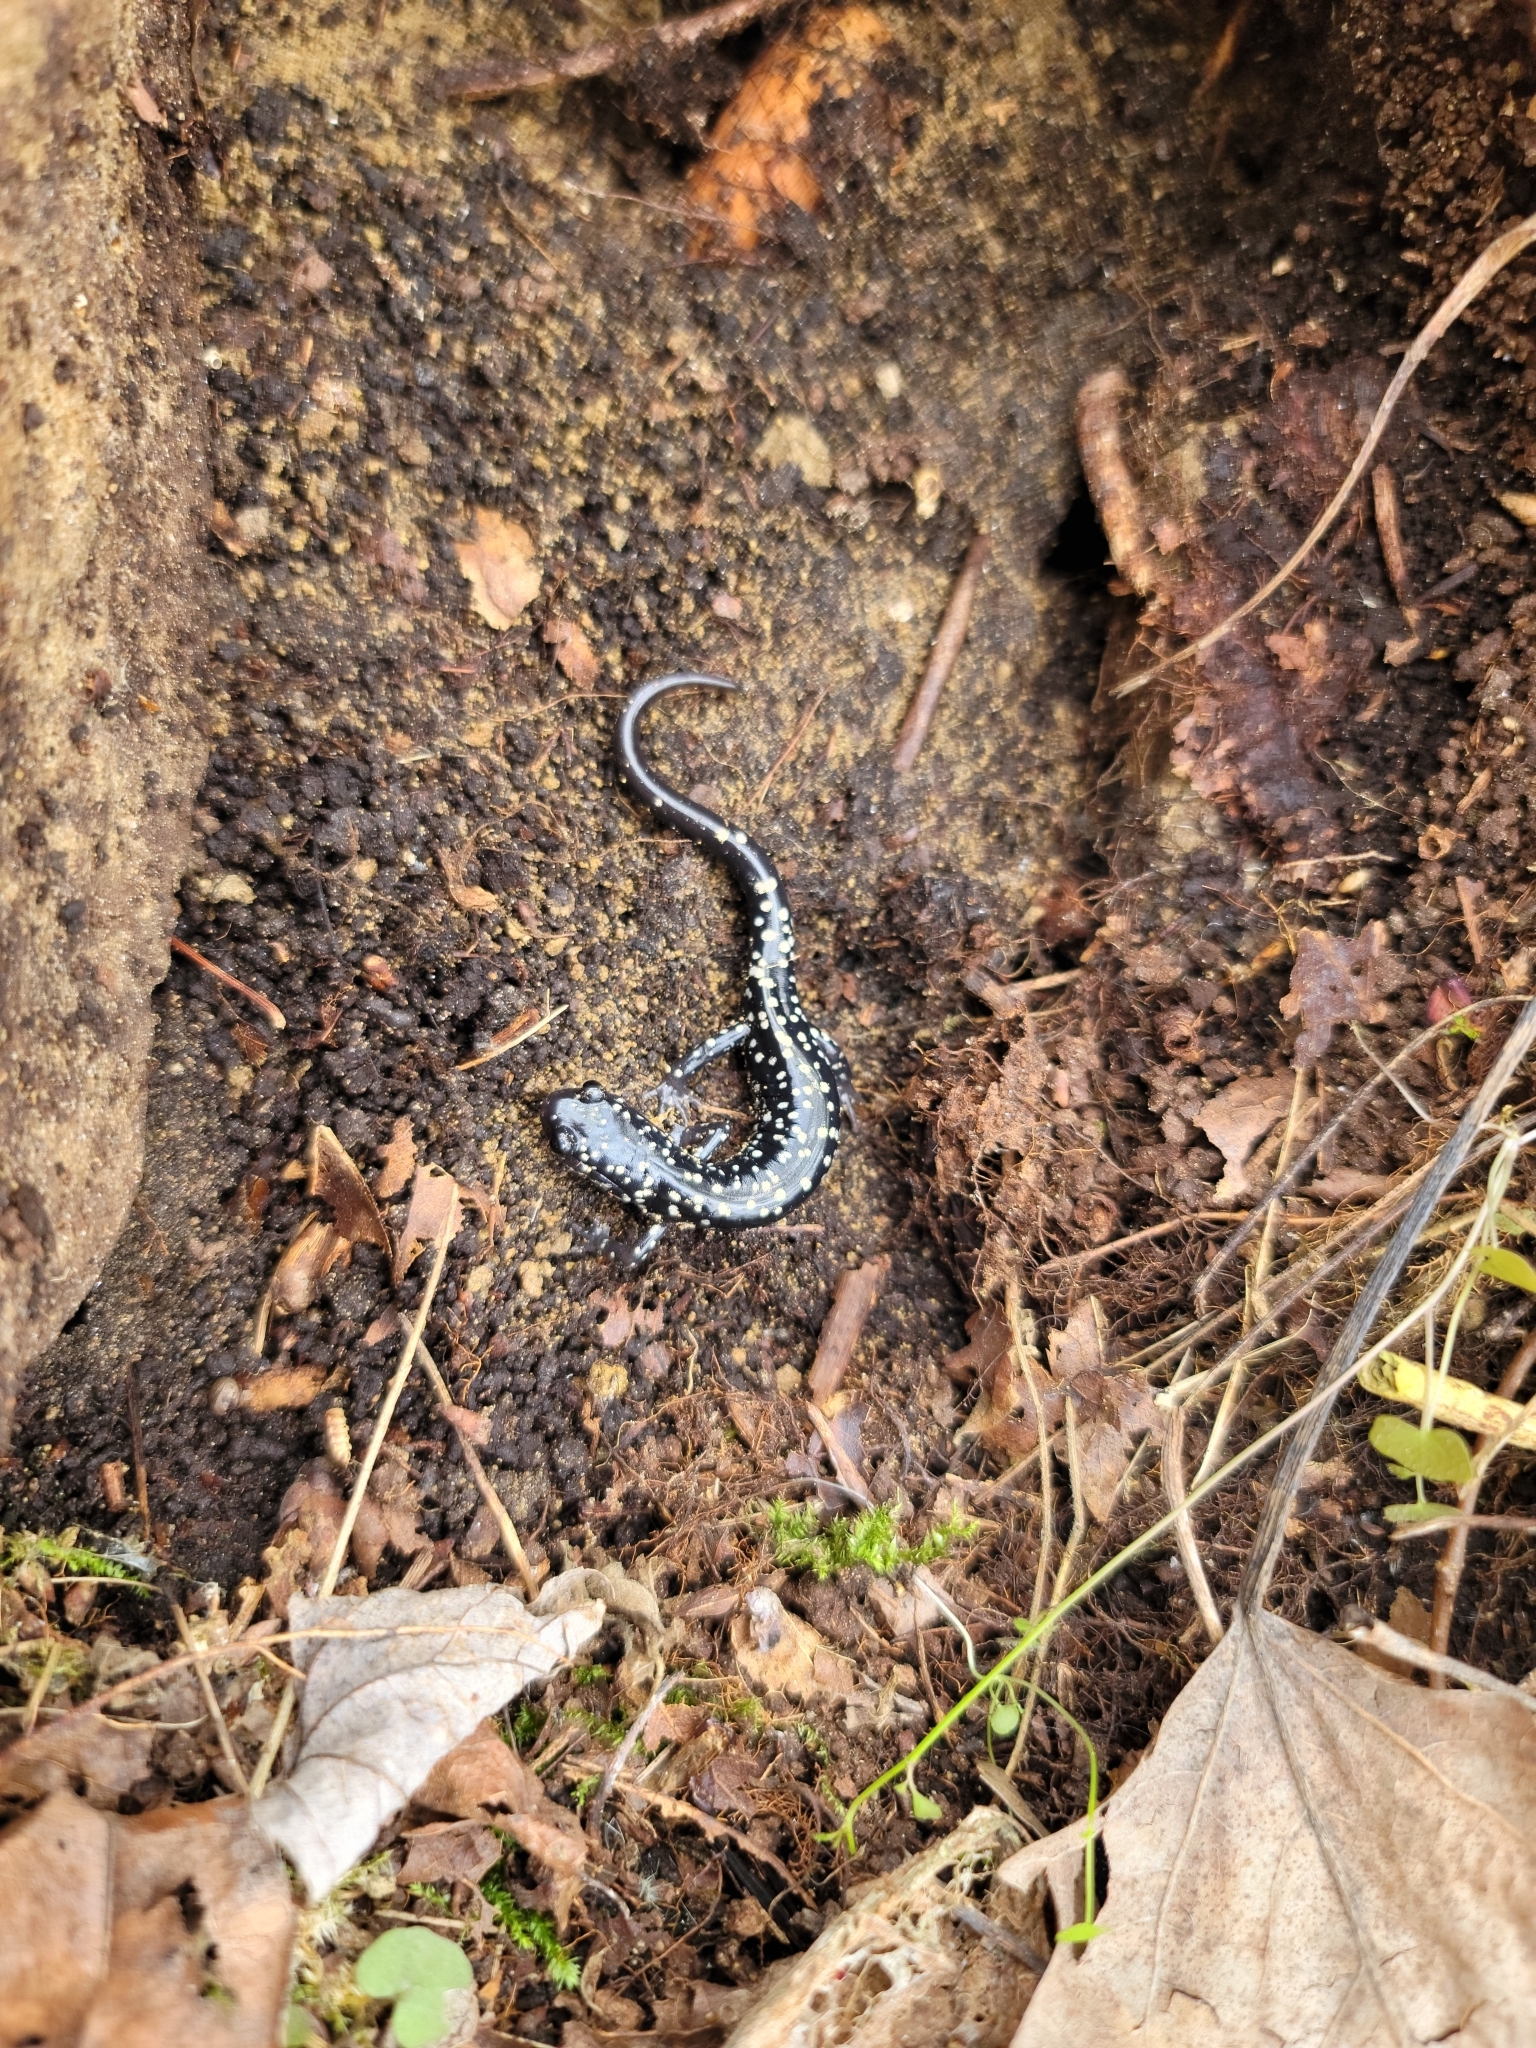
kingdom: Animalia
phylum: Chordata
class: Amphibia
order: Caudata
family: Plethodontidae
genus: Plethodon
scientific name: Plethodon glutinosus
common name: Northern slimy salamander
